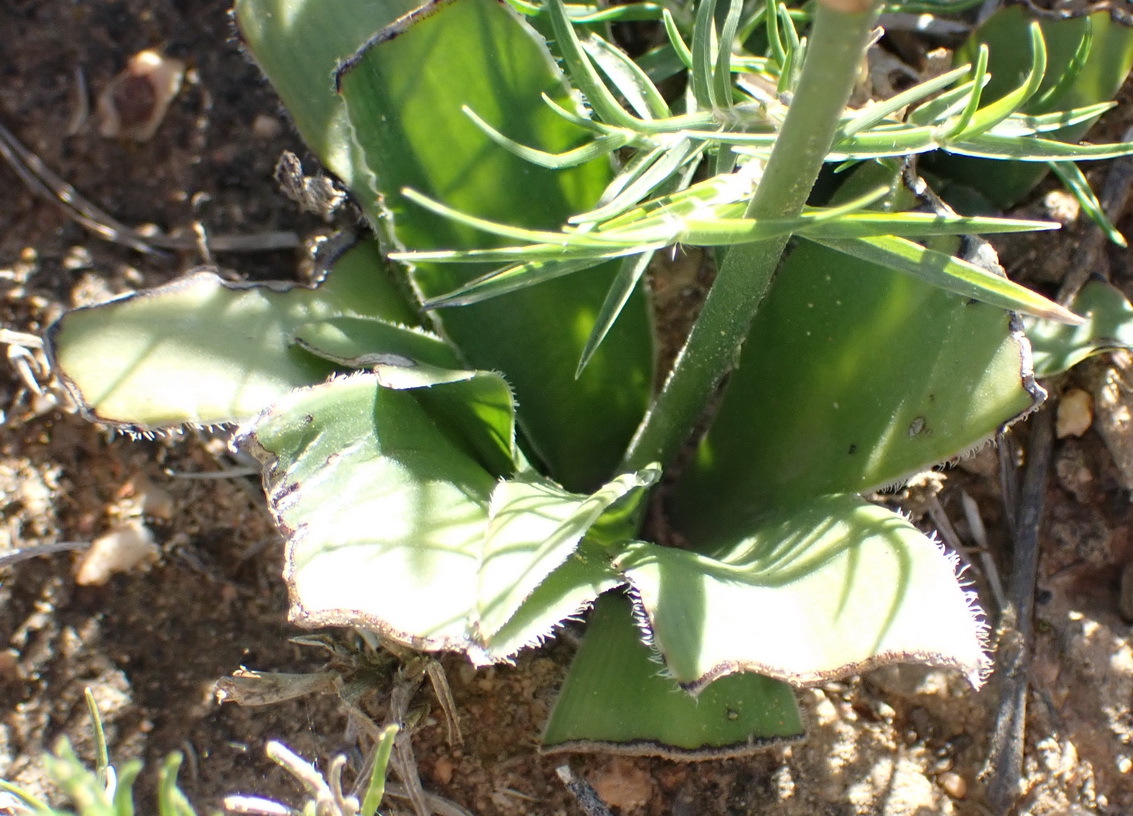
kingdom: Plantae
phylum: Tracheophyta
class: Liliopsida
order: Asparagales
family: Asparagaceae
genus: Chlorophytum
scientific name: Chlorophytum crispum
